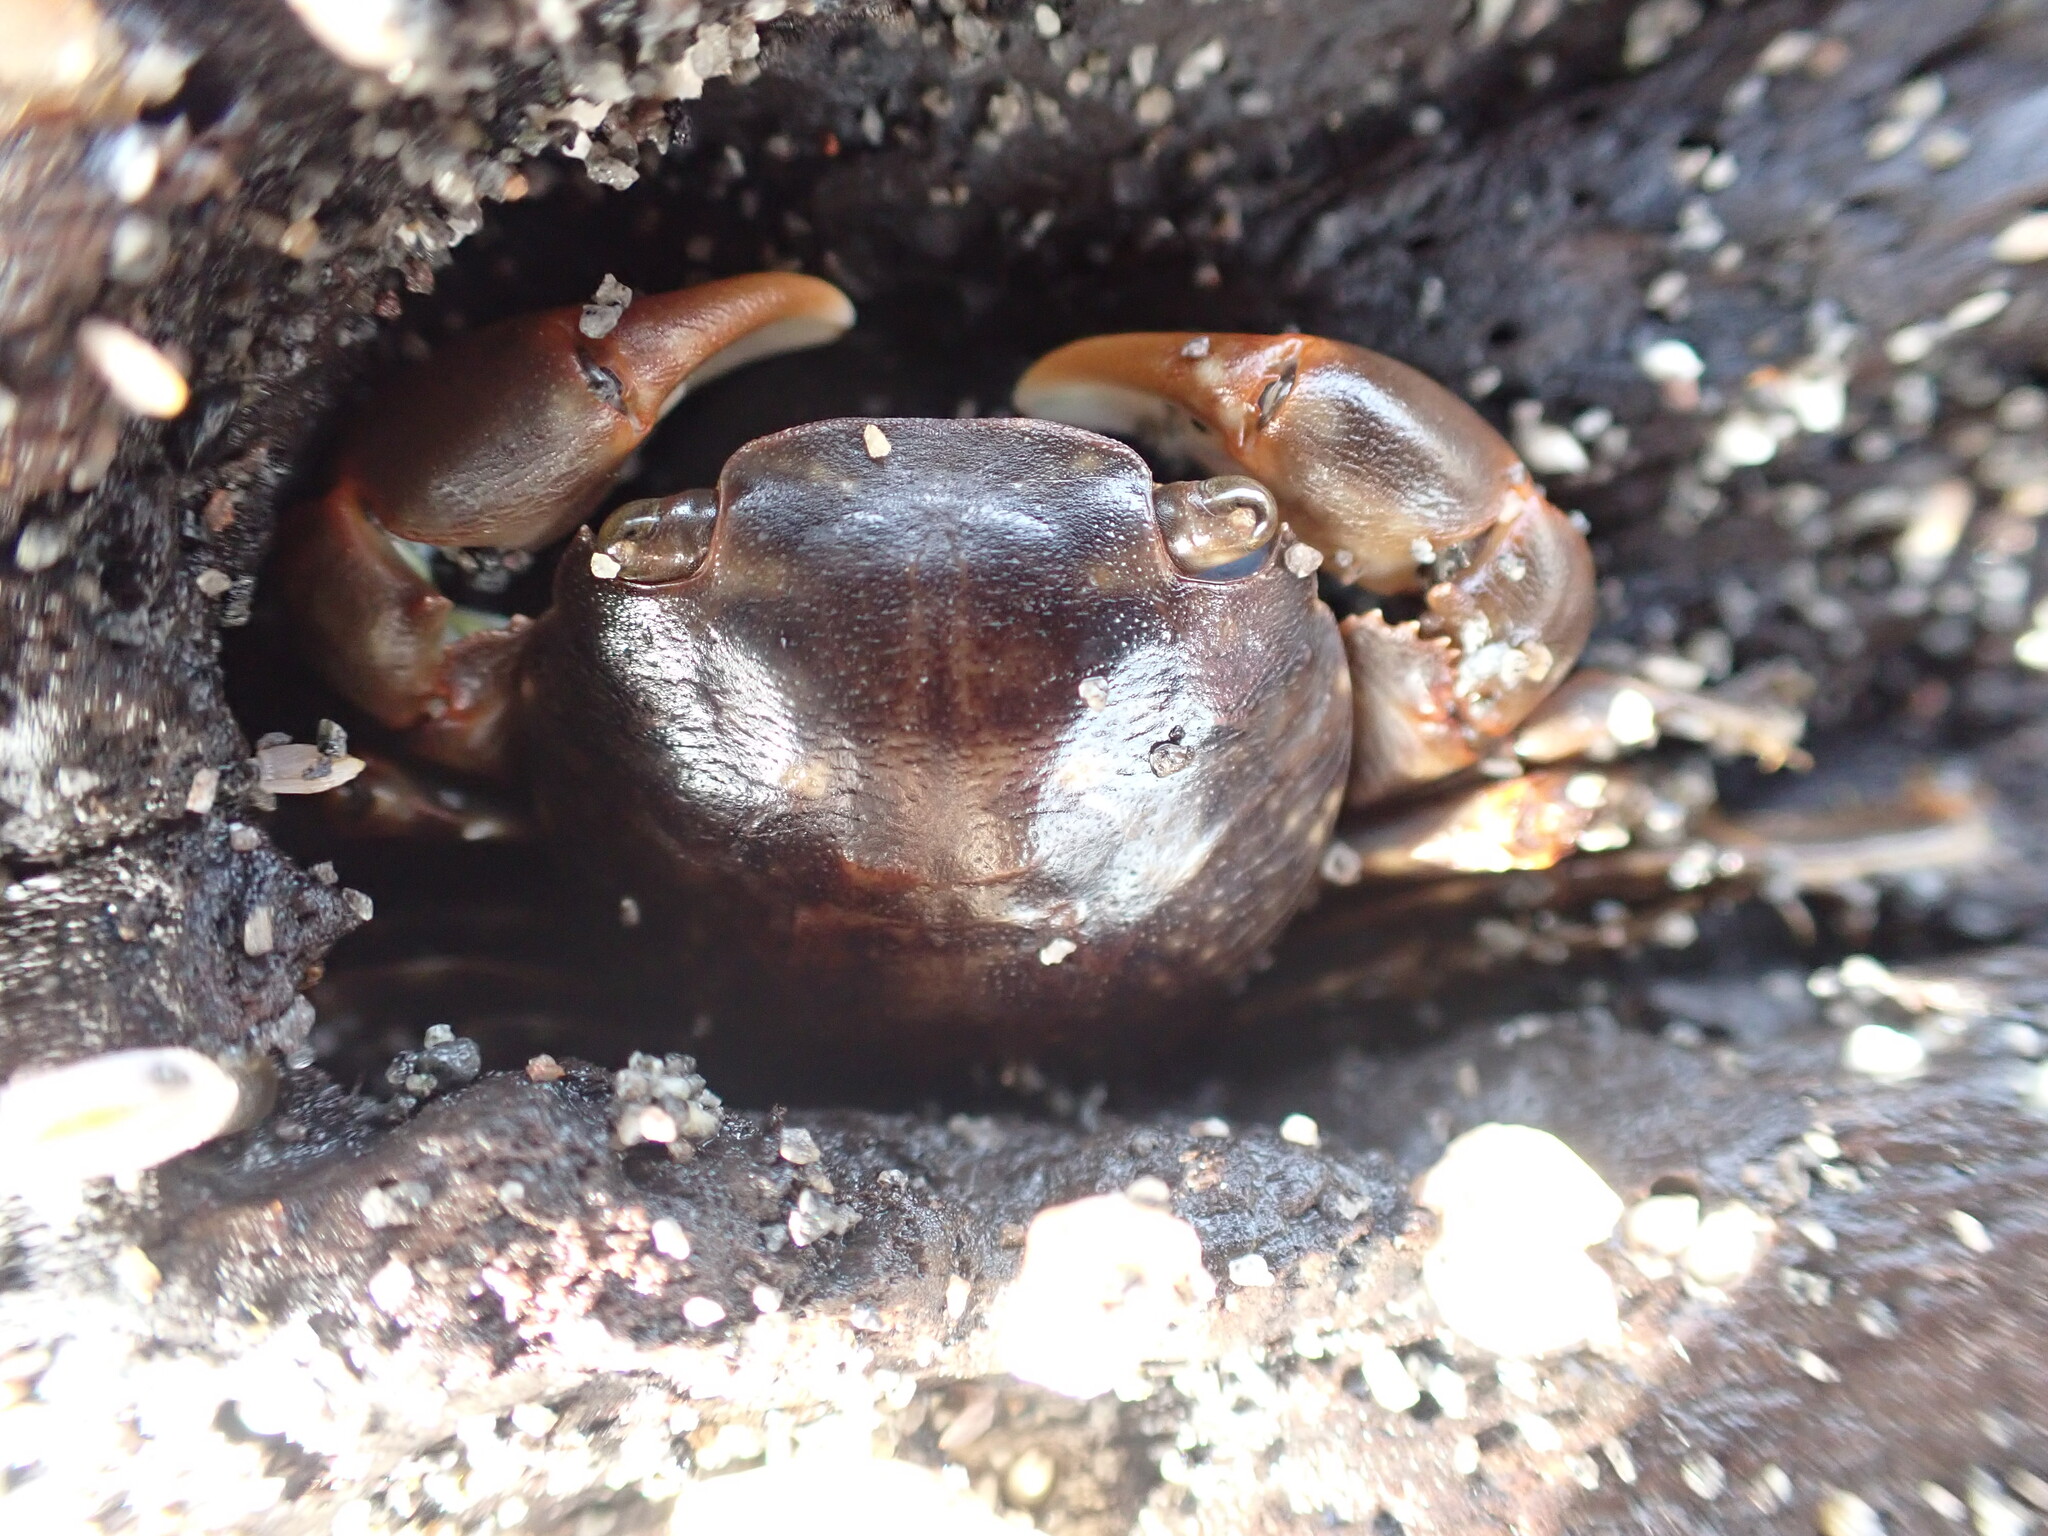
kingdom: Animalia
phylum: Arthropoda
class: Malacostraca
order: Decapoda
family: Grapsidae
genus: Planes
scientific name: Planes minutus
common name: Gulf weed crab
